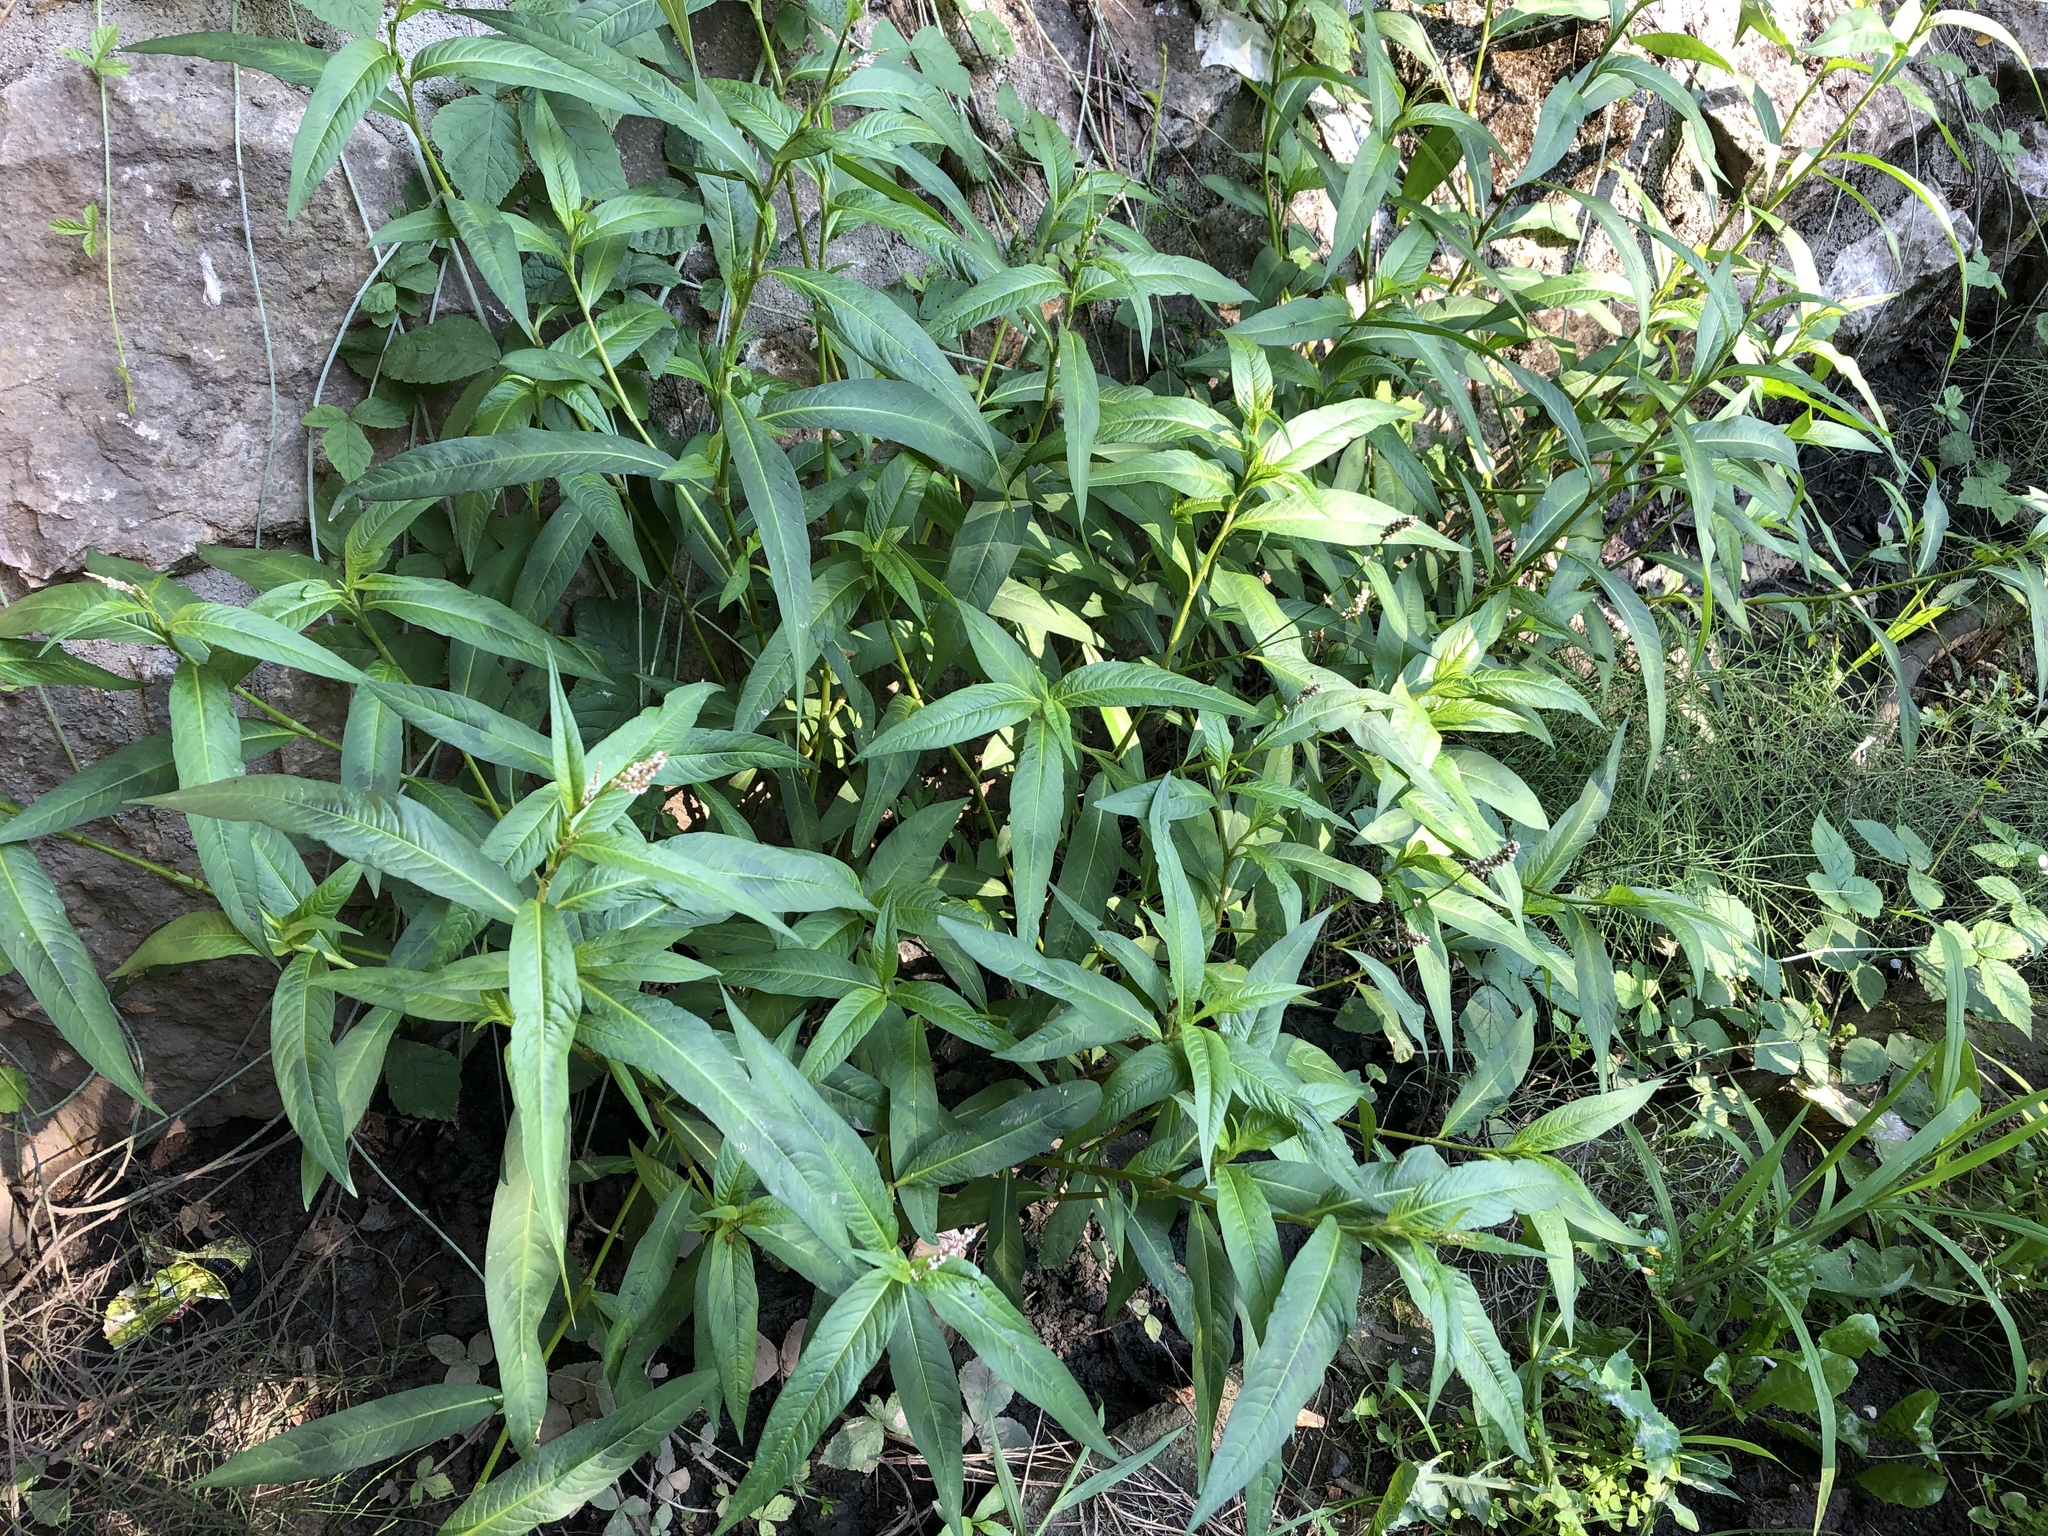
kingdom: Plantae
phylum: Tracheophyta
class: Magnoliopsida
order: Caryophyllales
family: Polygonaceae
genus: Persicaria
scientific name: Persicaria lapathifolia
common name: Curlytop knotweed
